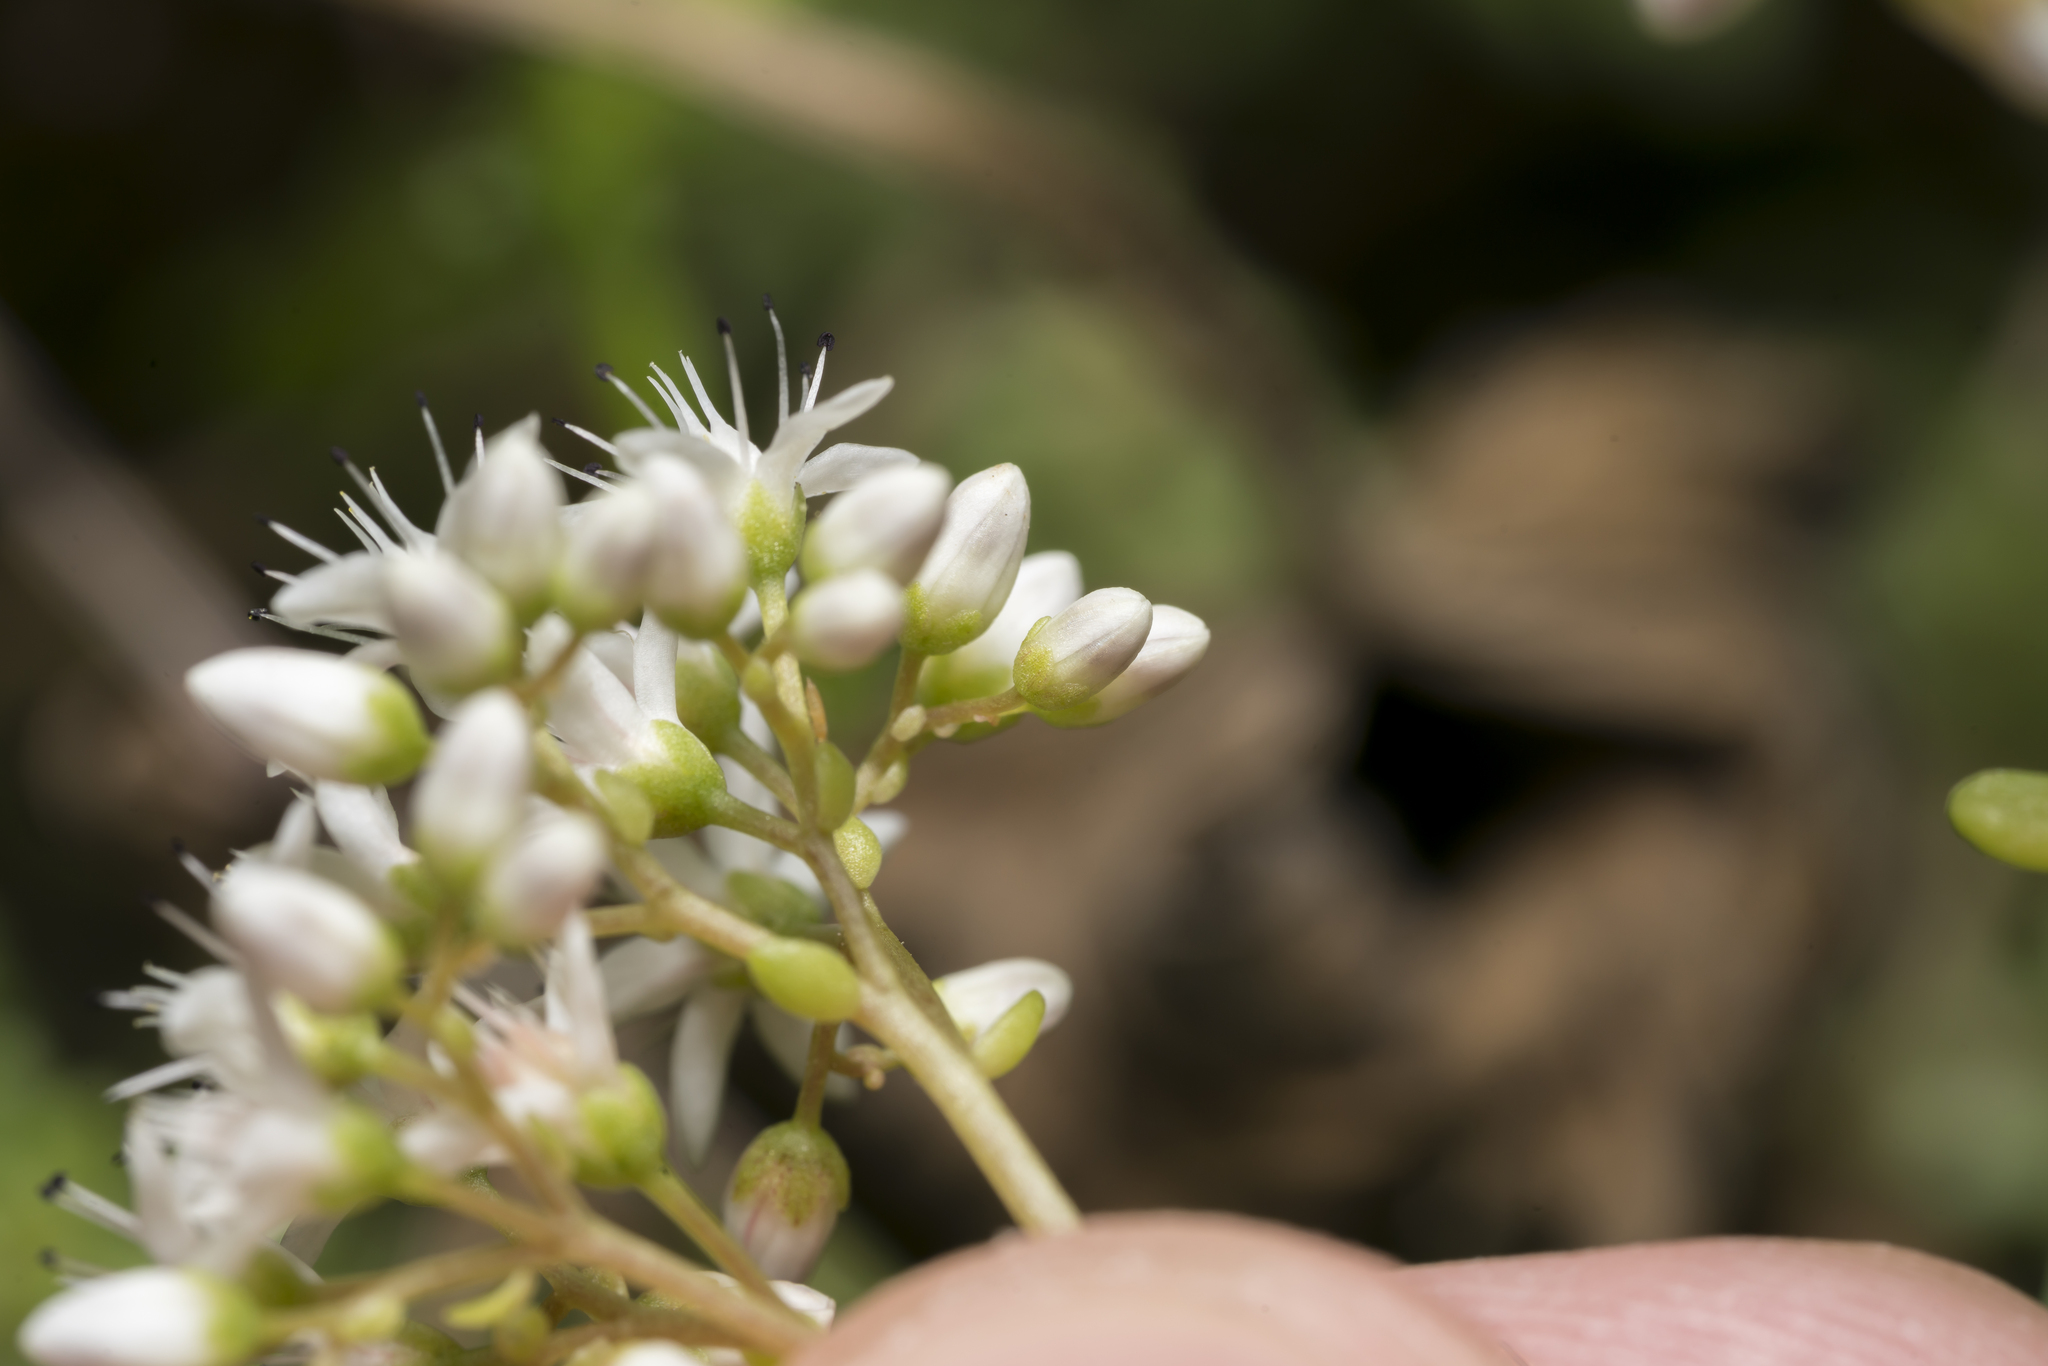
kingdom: Plantae
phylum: Tracheophyta
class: Magnoliopsida
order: Saxifragales
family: Crassulaceae
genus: Sedum
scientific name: Sedum album
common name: White stonecrop
